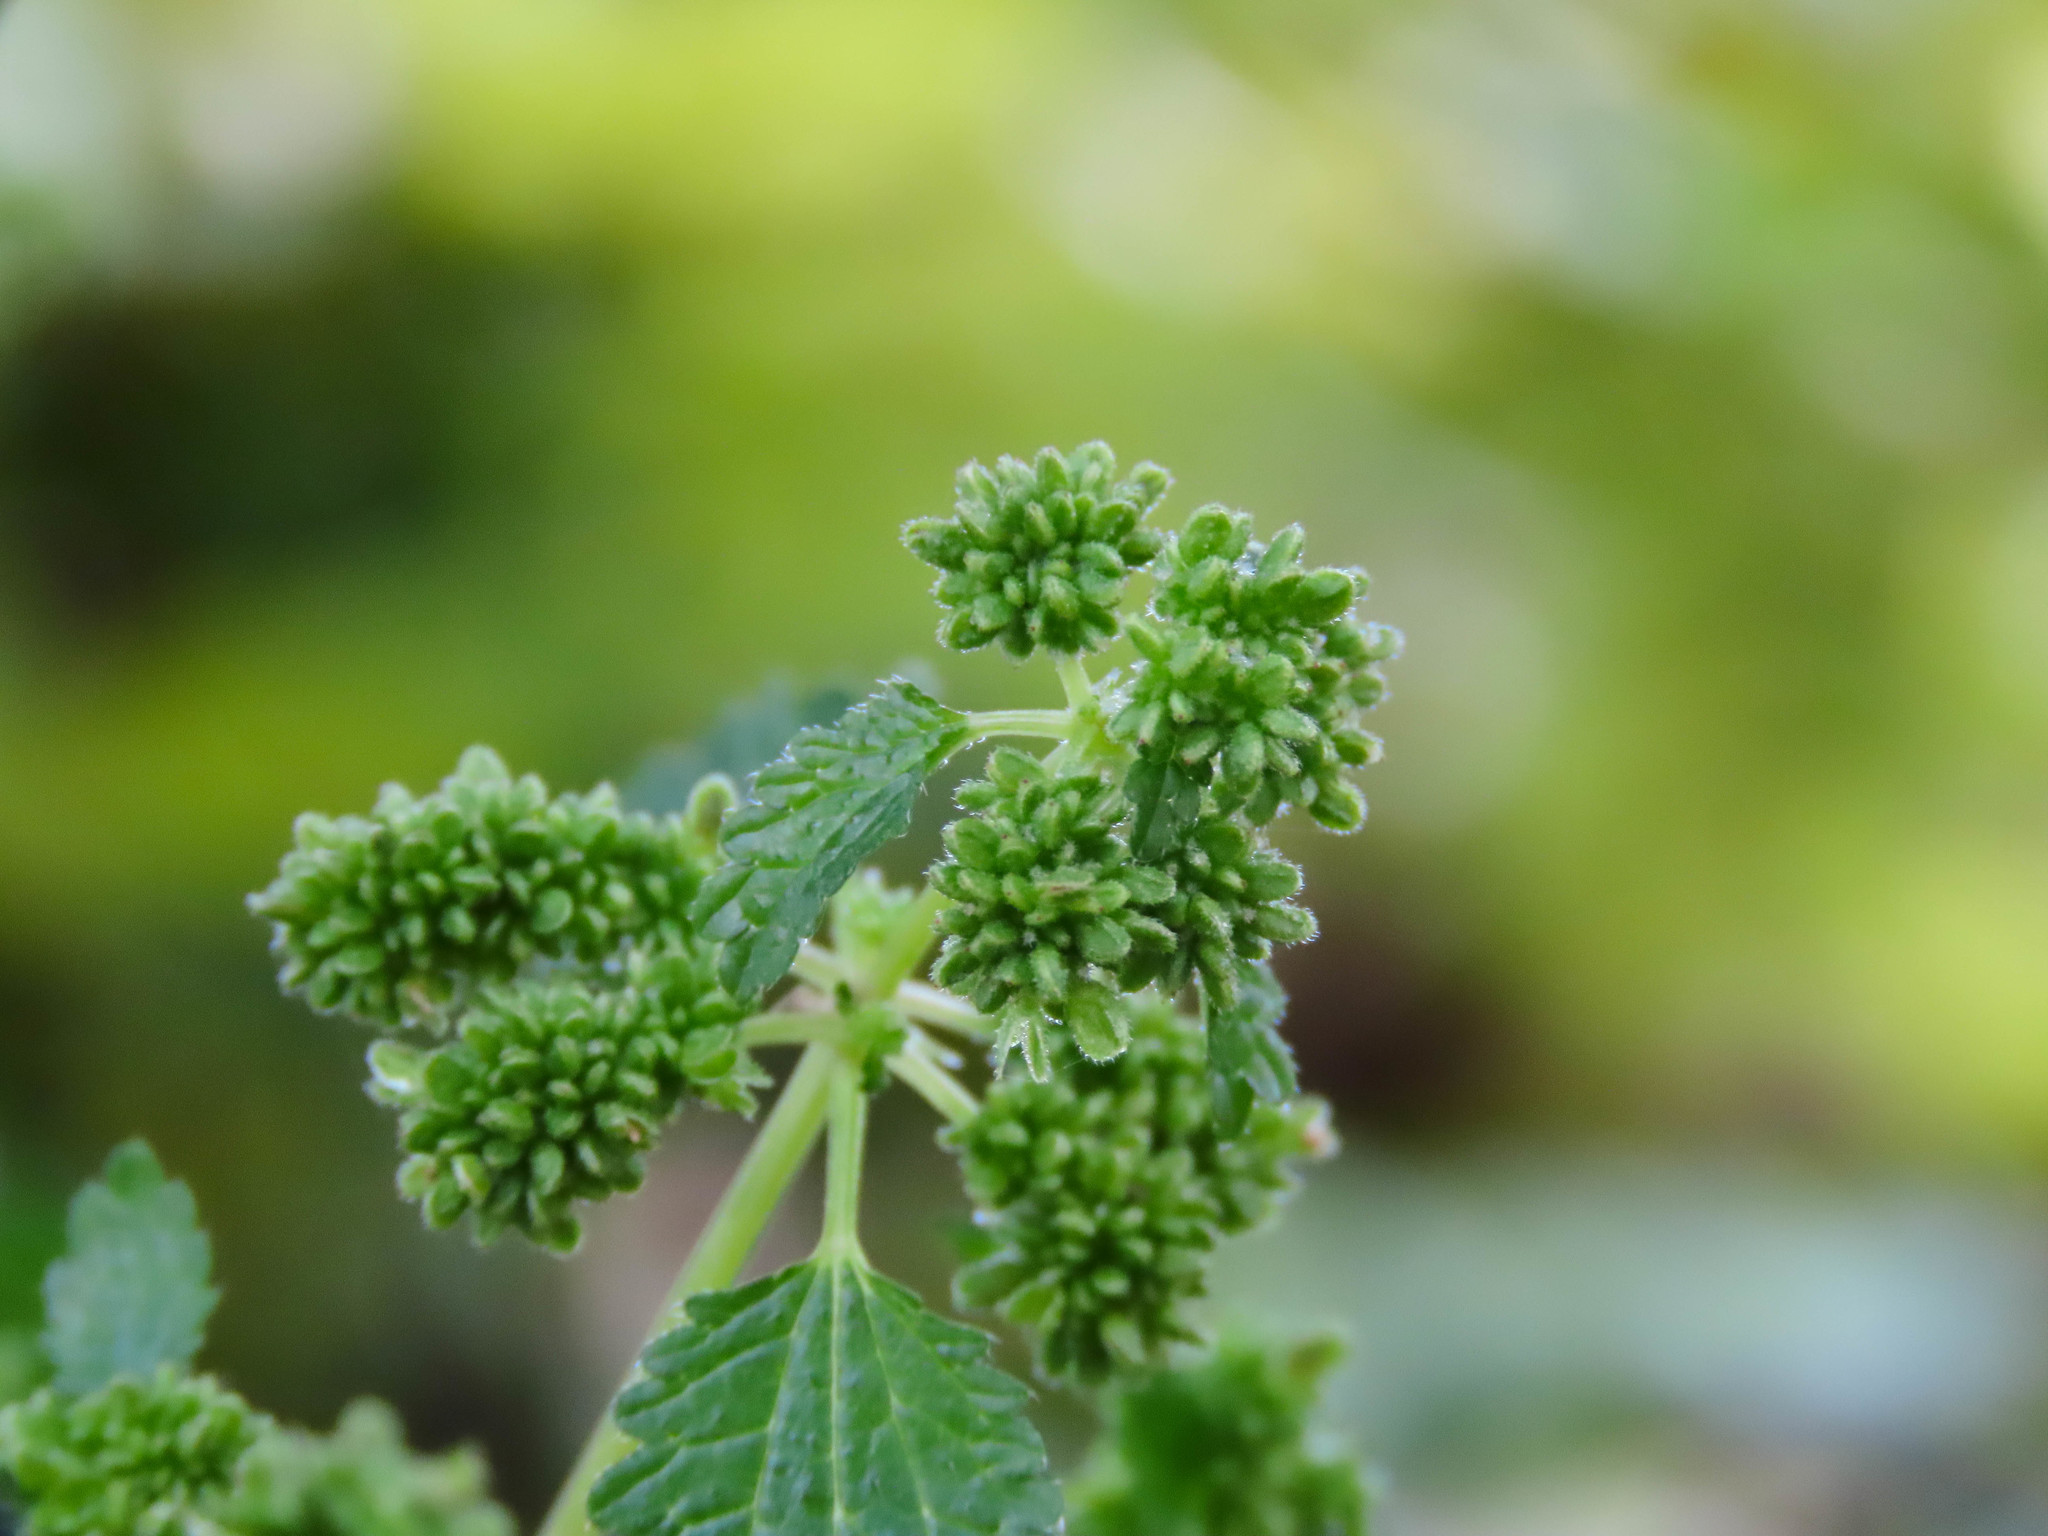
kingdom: Plantae
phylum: Tracheophyta
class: Magnoliopsida
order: Rosales
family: Urticaceae
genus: Urtica
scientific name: Urtica urens
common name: Dwarf nettle
